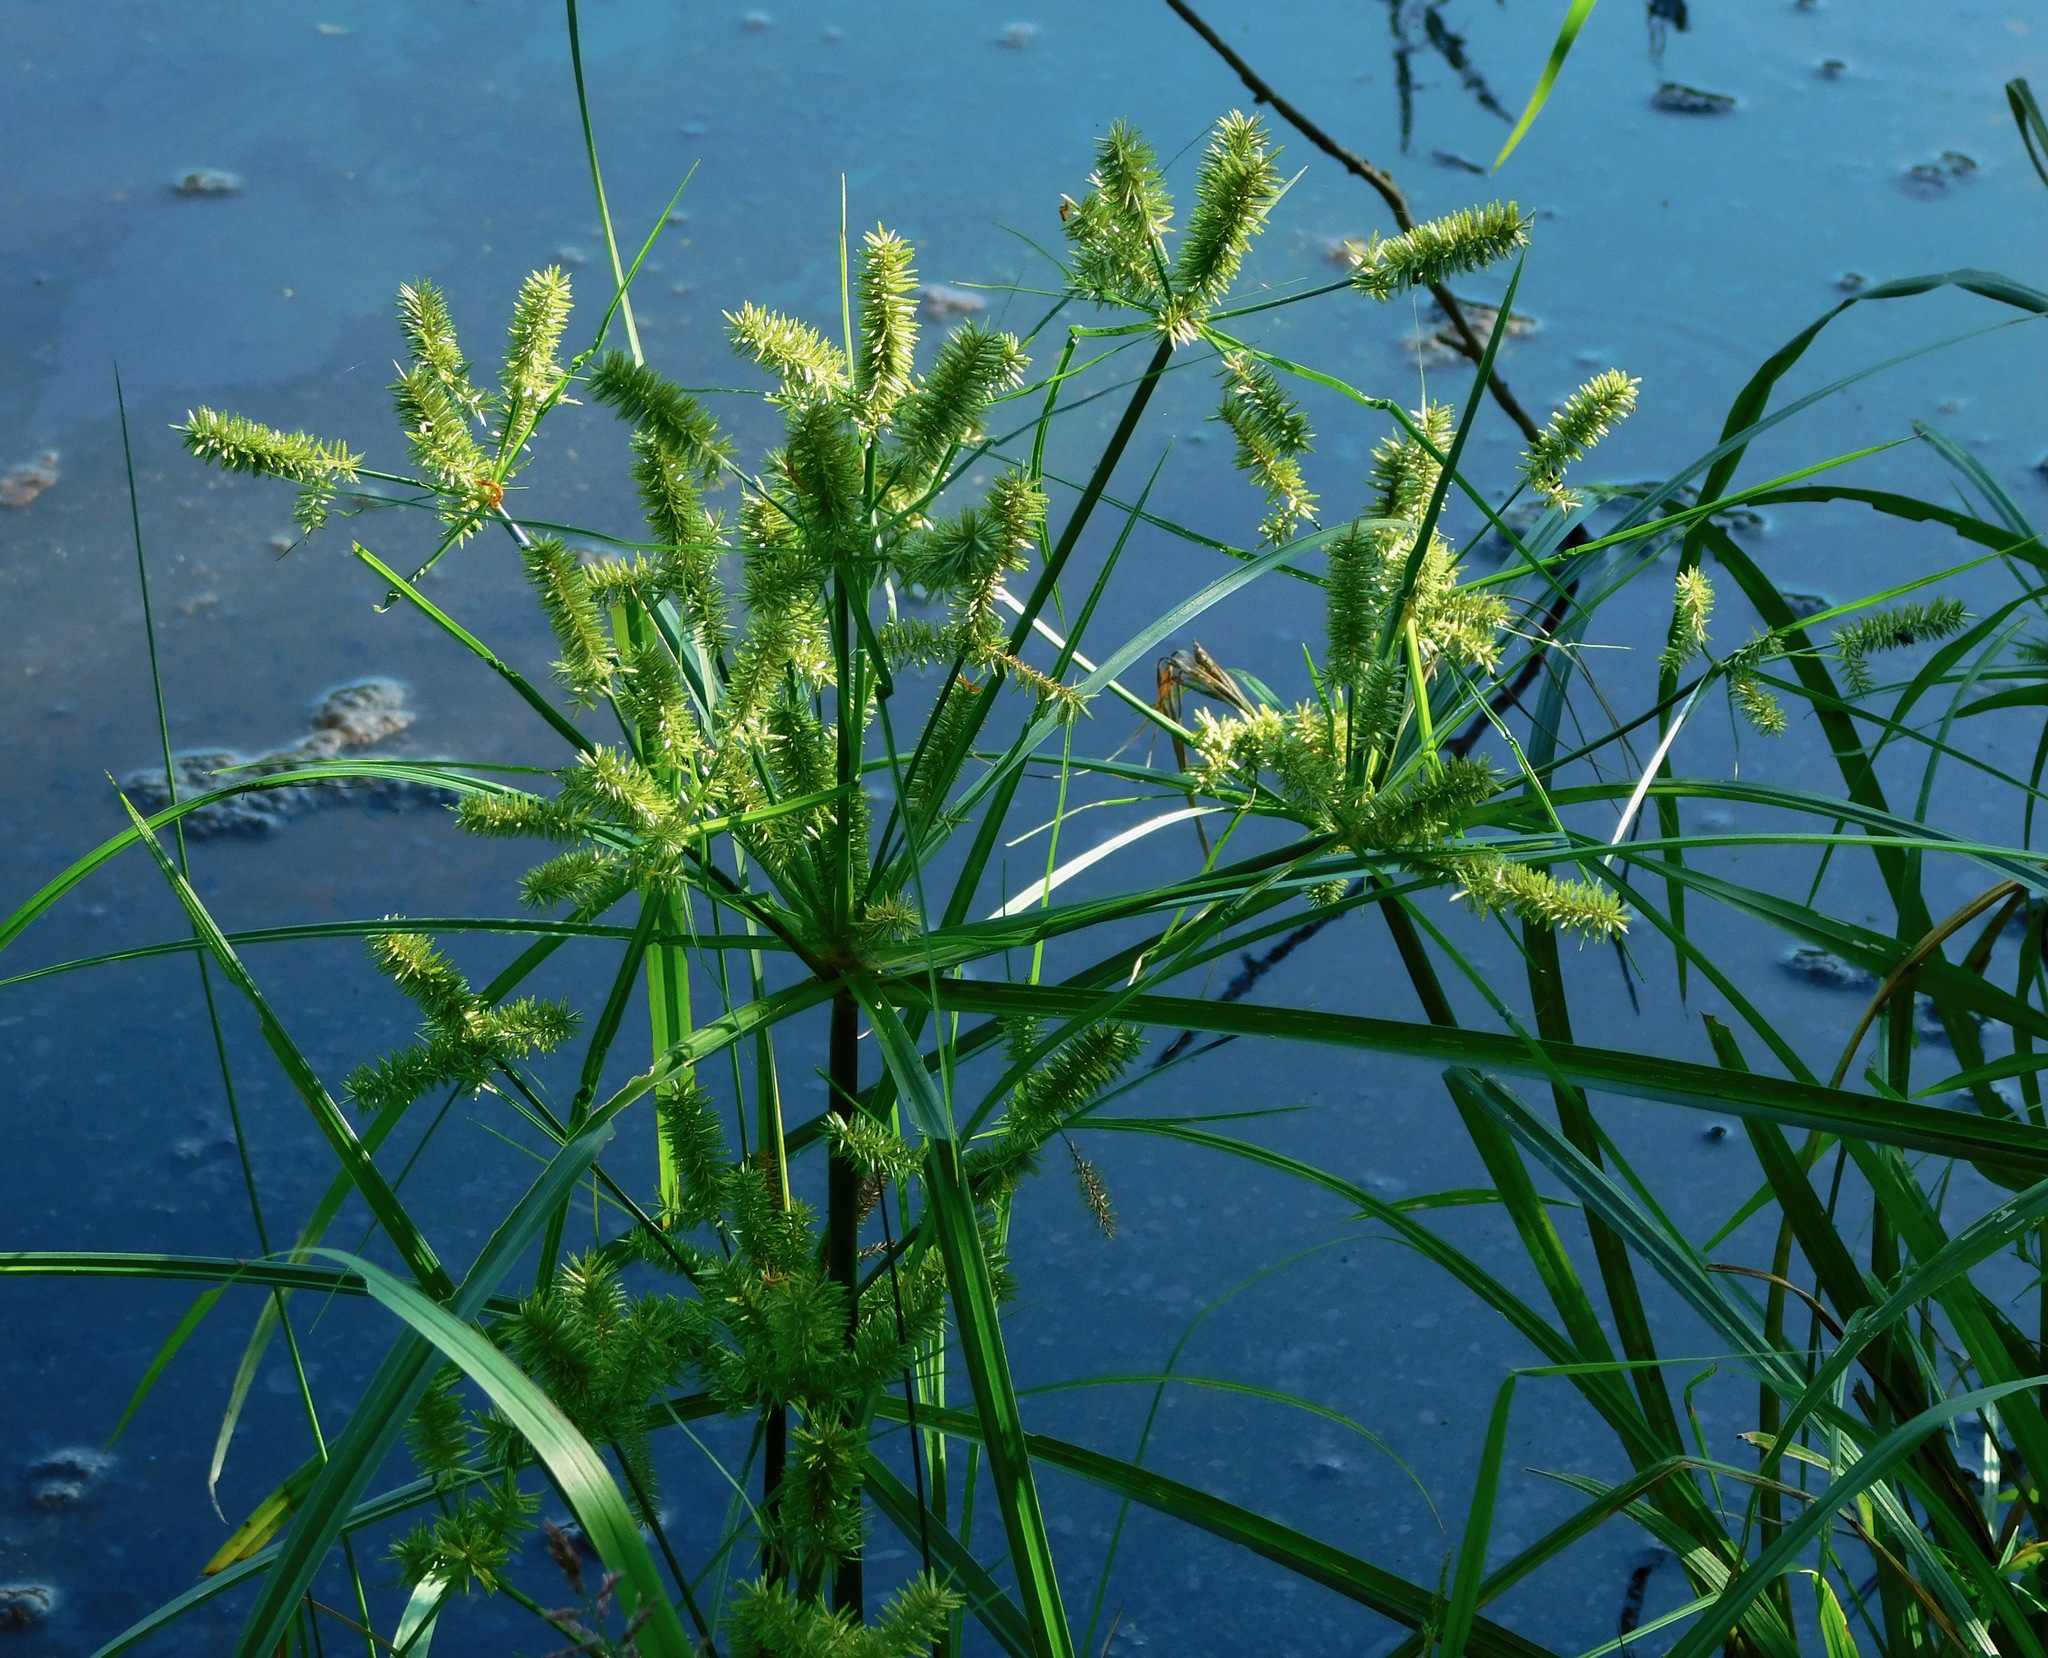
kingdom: Plantae
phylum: Tracheophyta
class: Liliopsida
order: Poales
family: Cyperaceae
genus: Cyperus
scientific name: Cyperus erythrorhizos
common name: Red-root flat sedge
